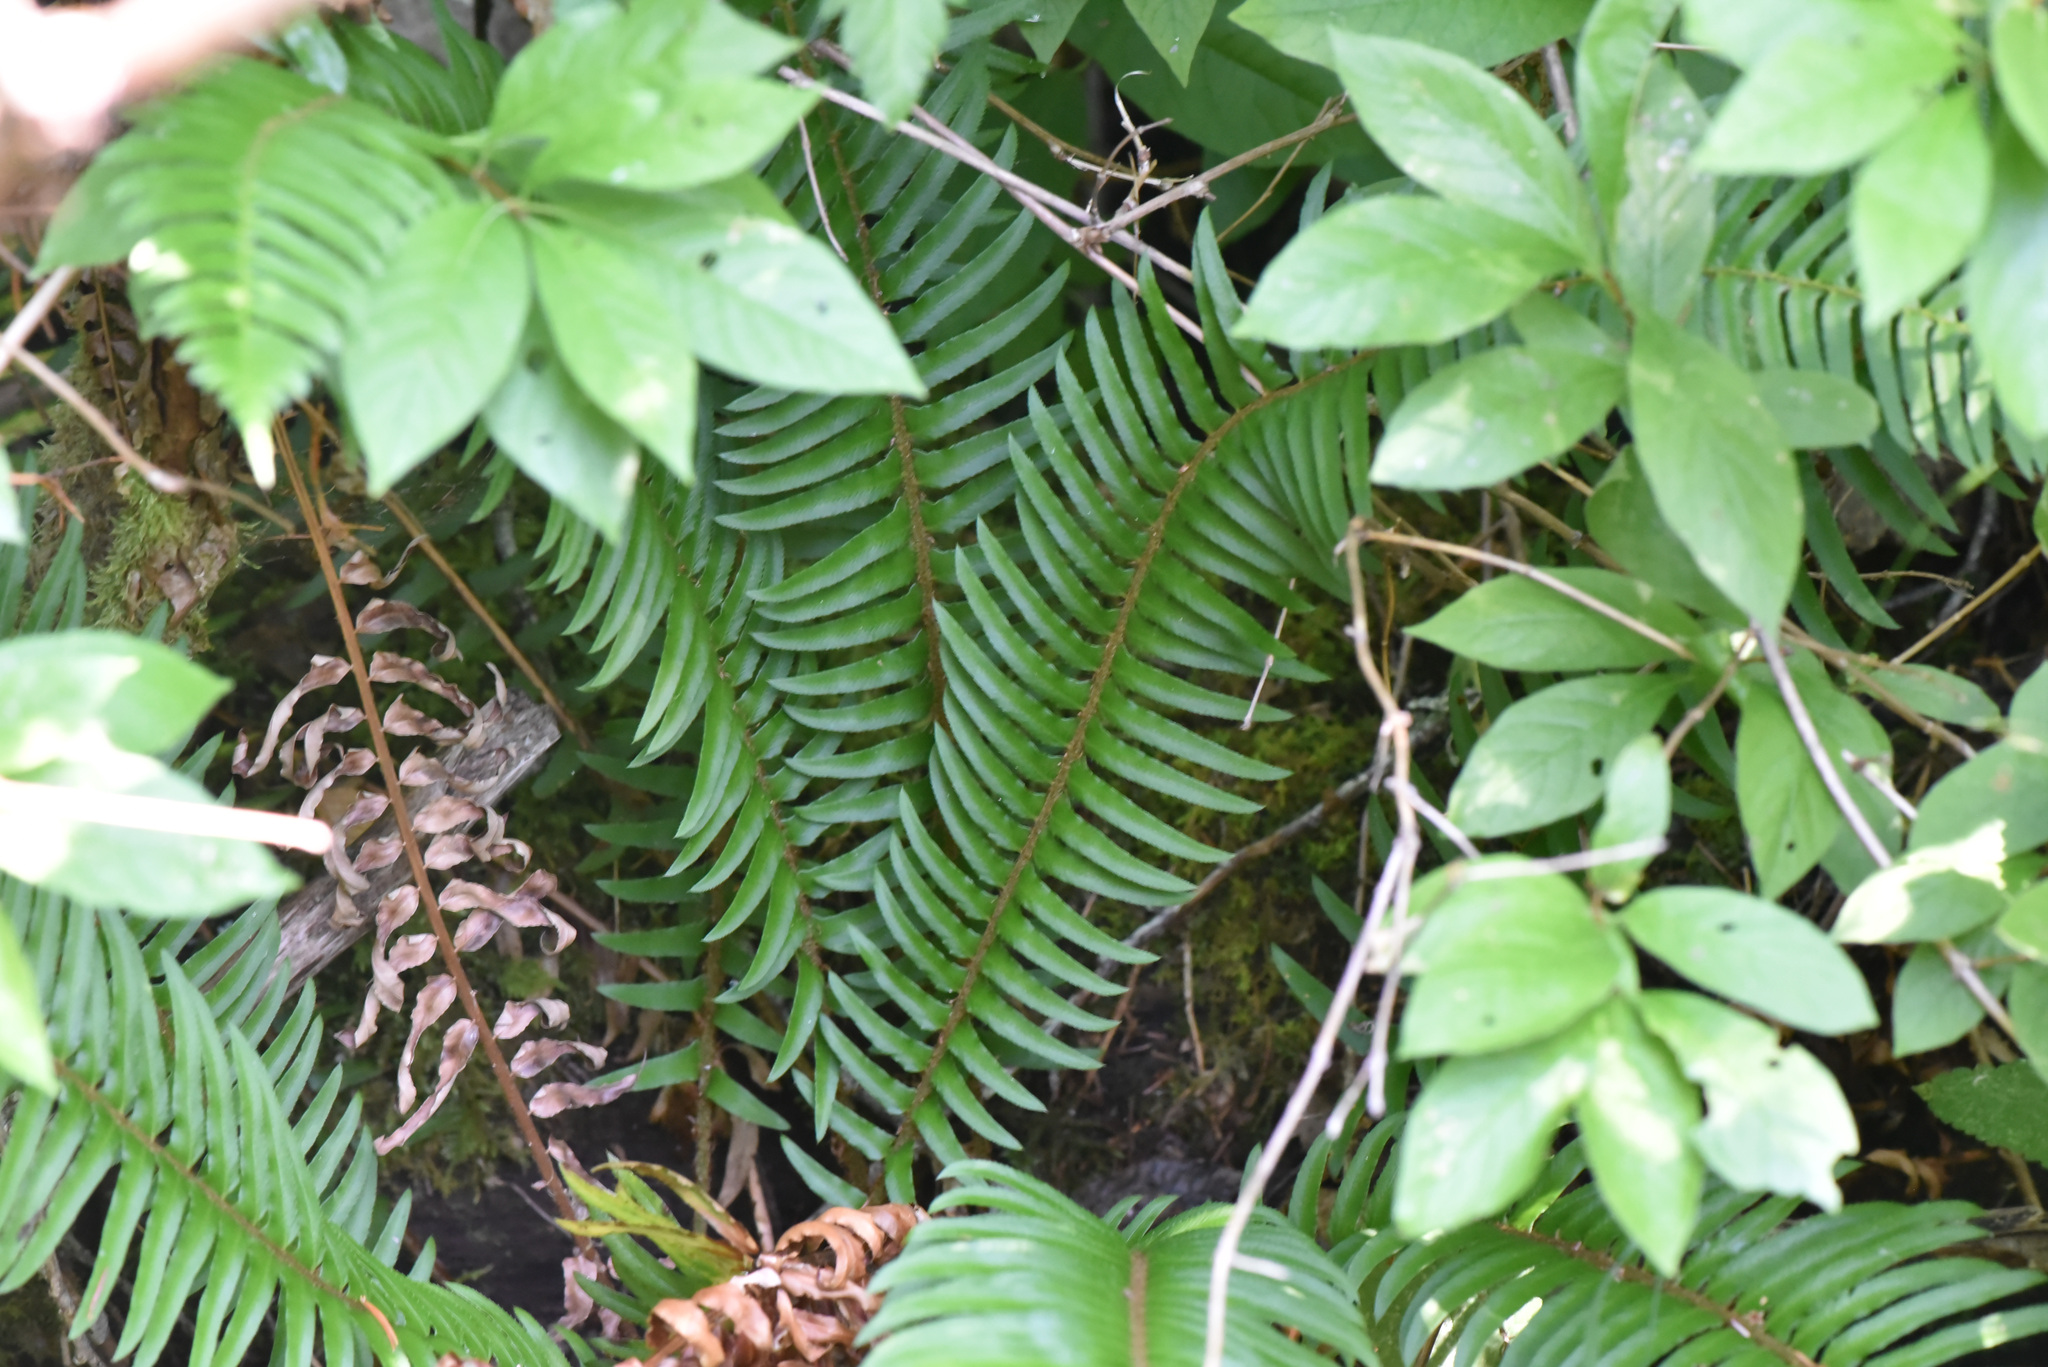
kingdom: Plantae
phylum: Tracheophyta
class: Polypodiopsida
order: Polypodiales
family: Dryopteridaceae
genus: Polystichum
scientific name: Polystichum munitum
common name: Western sword-fern
